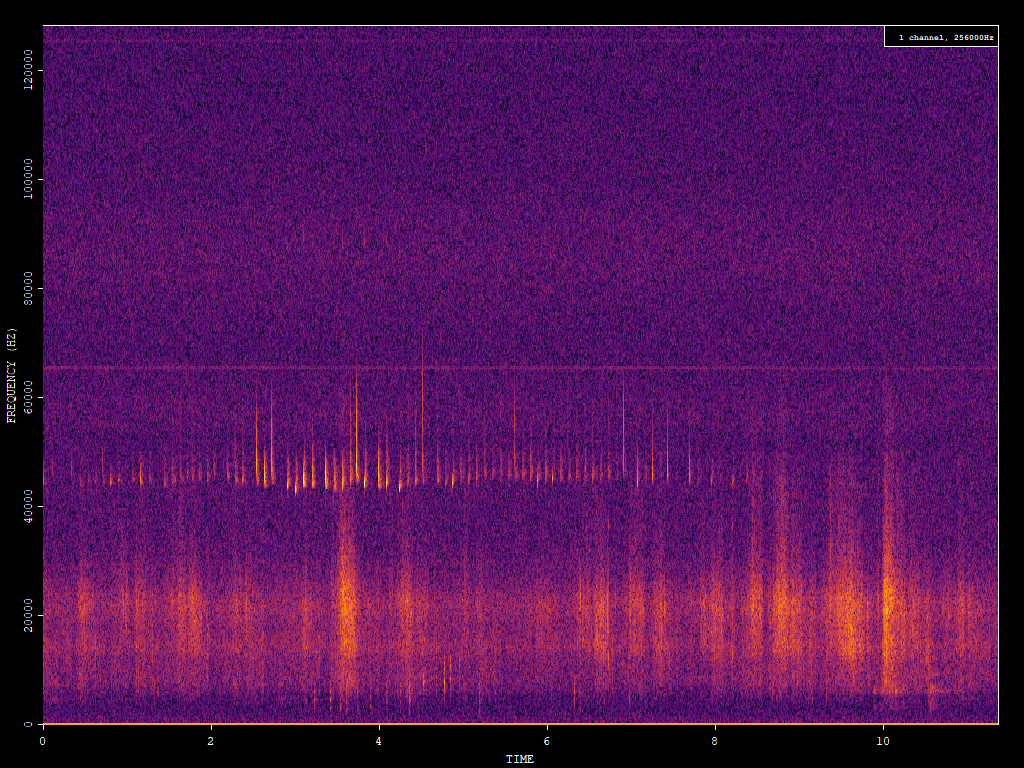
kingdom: Animalia
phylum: Chordata
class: Mammalia
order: Chiroptera
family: Vespertilionidae
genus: Pipistrellus
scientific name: Pipistrellus pipistrellus
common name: Common pipistrelle
